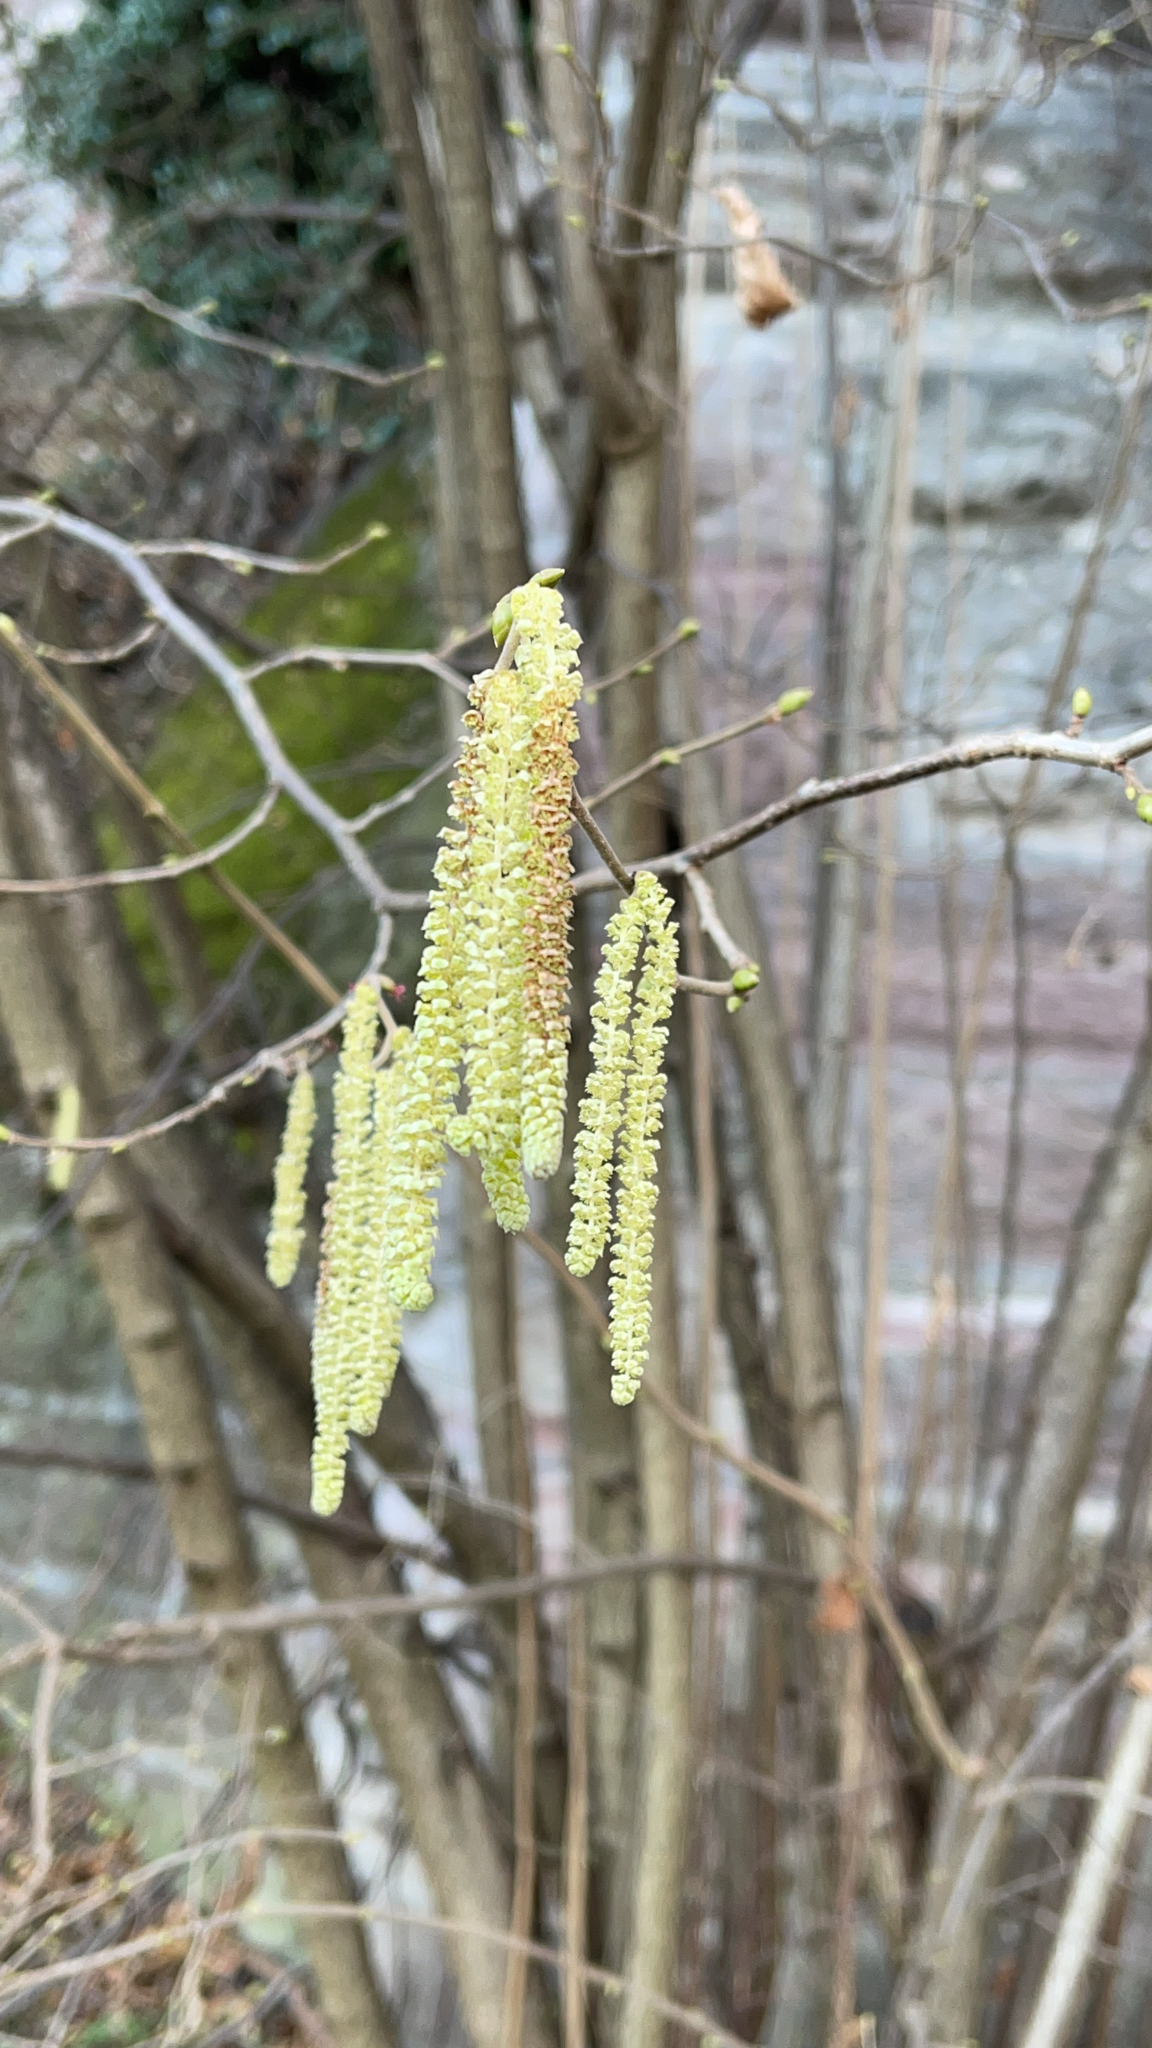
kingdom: Plantae
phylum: Tracheophyta
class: Magnoliopsida
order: Fagales
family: Betulaceae
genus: Corylus
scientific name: Corylus avellana
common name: European hazel
